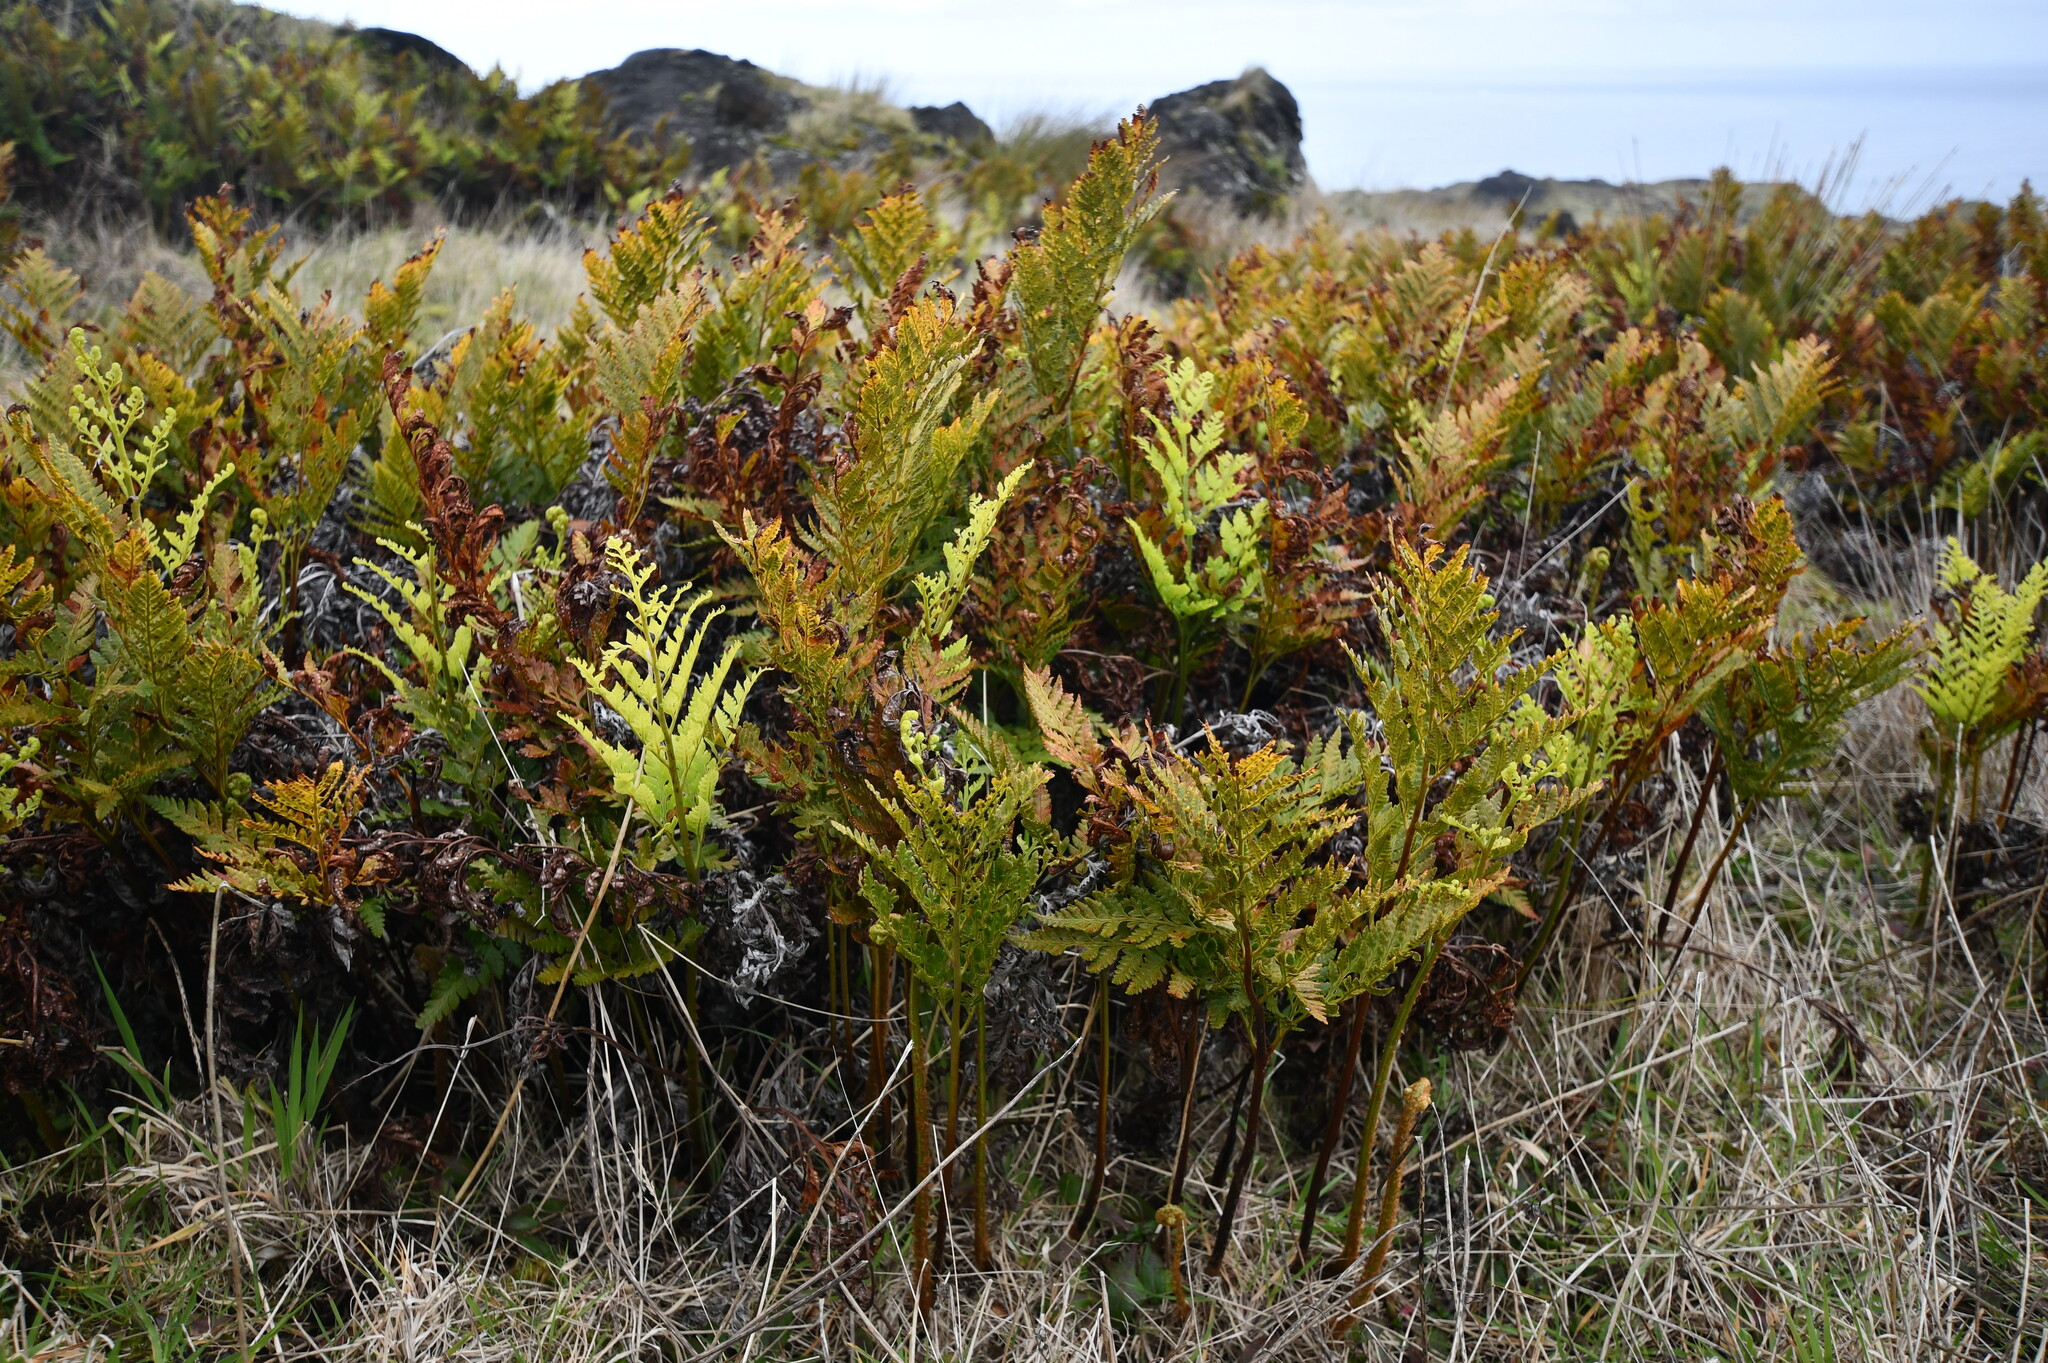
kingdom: Plantae
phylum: Tracheophyta
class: Polypodiopsida
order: Polypodiales
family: Dryopteridaceae
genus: Rumohra
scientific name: Rumohra adiantiformis
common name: Leather fern
